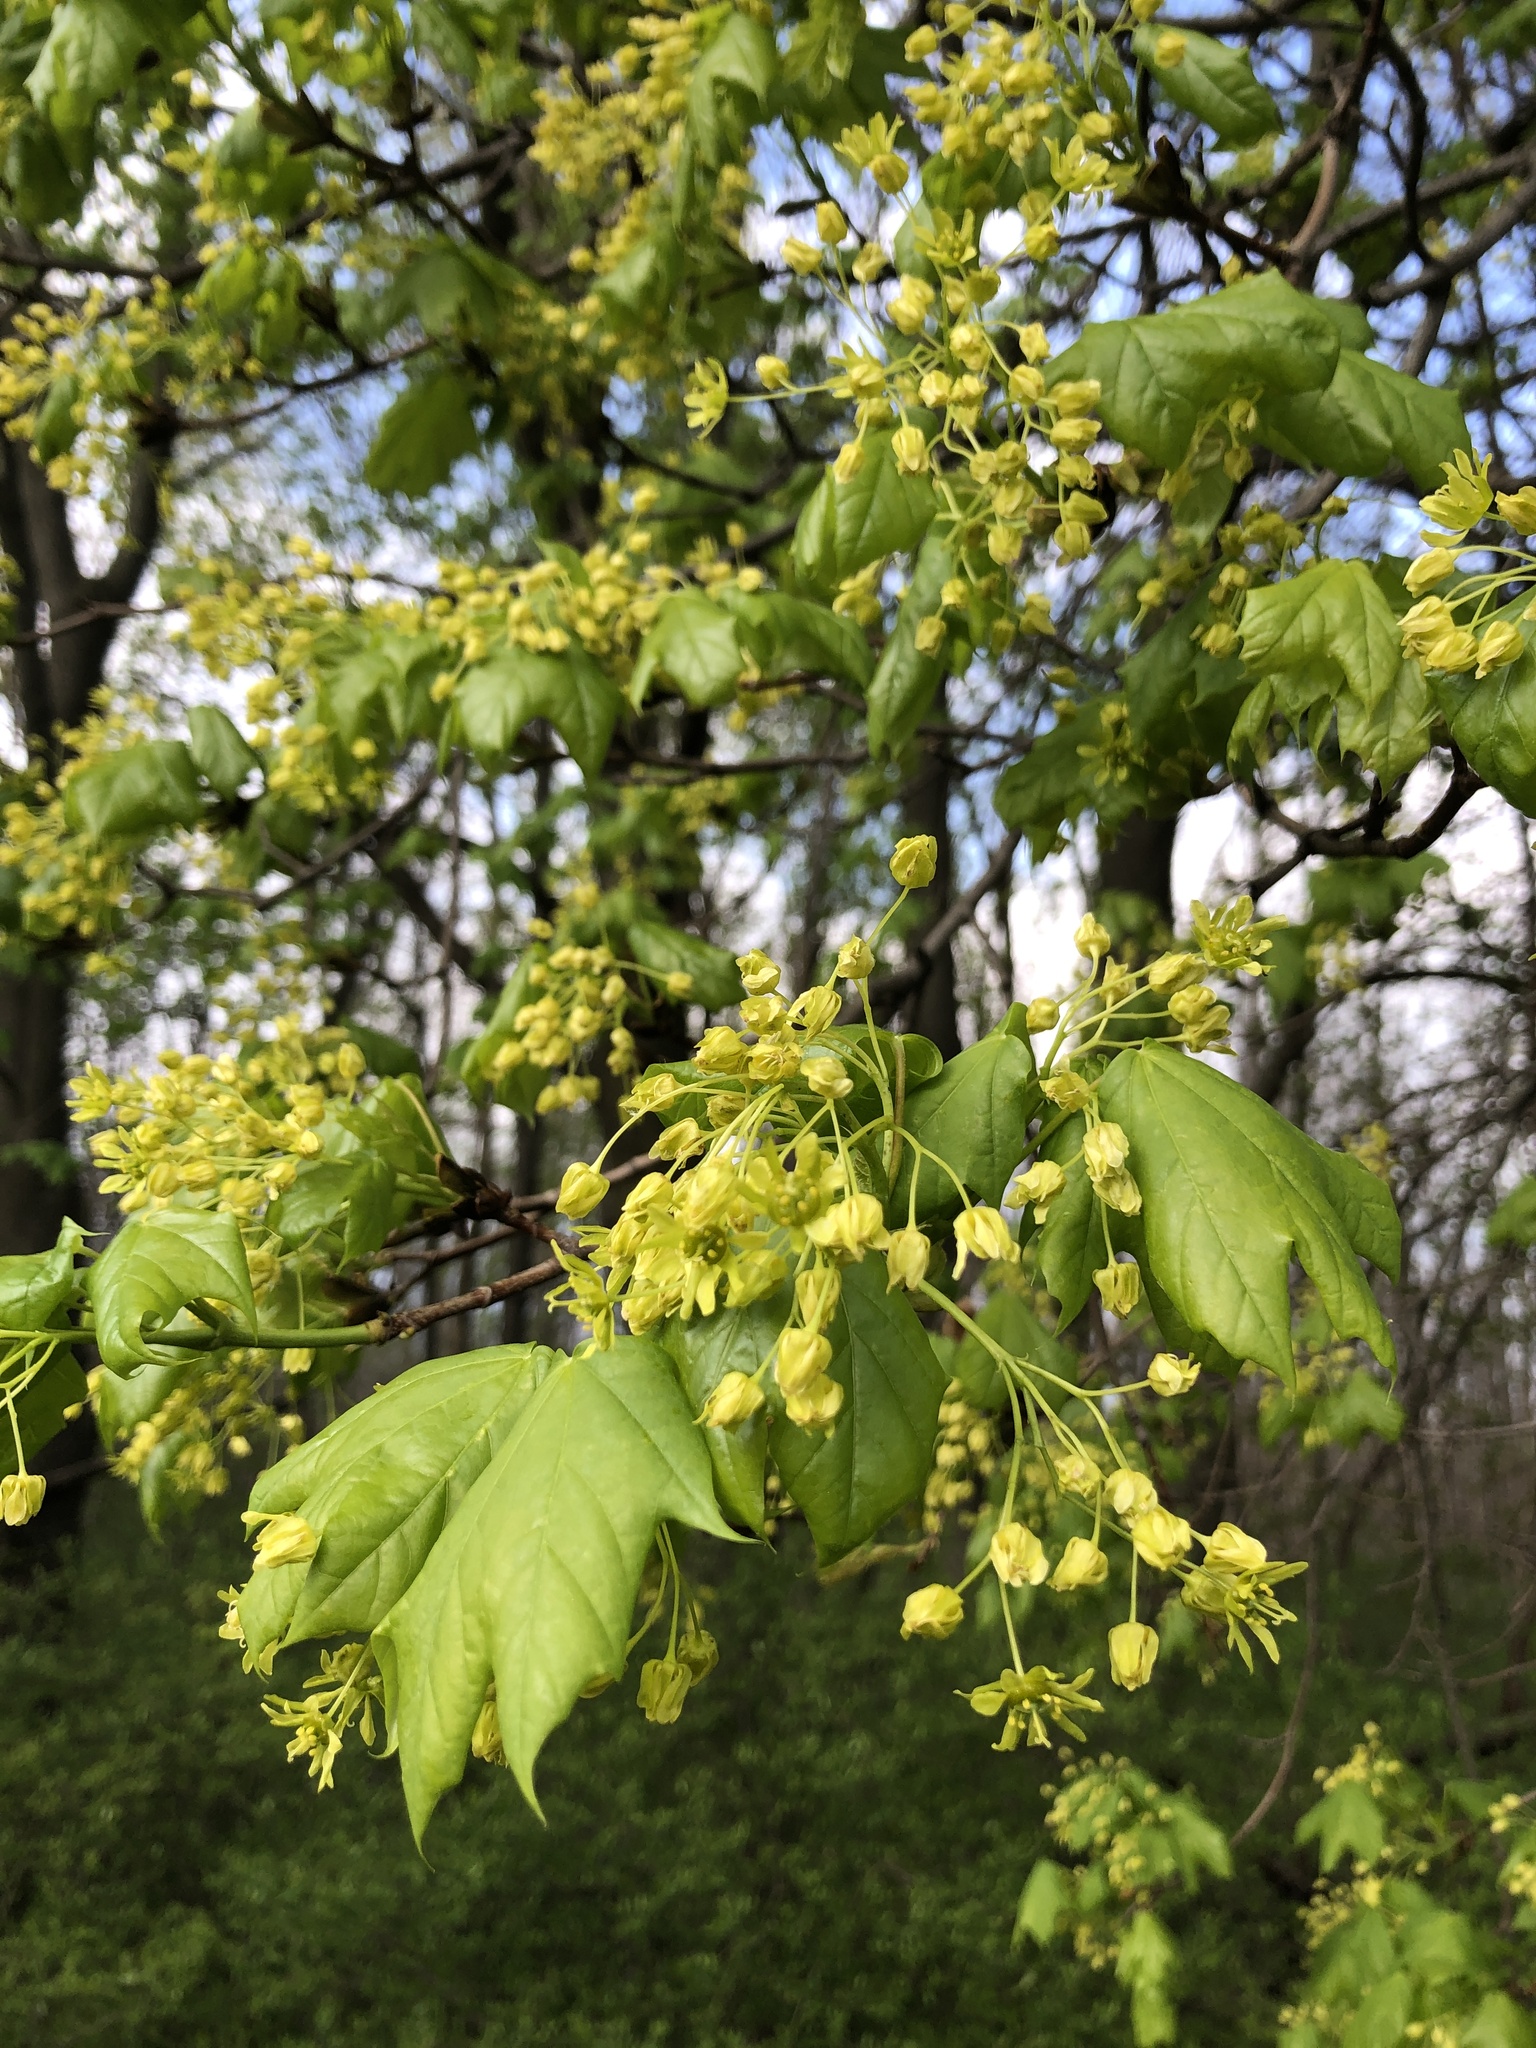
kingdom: Plantae
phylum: Tracheophyta
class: Magnoliopsida
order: Sapindales
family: Sapindaceae
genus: Acer
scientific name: Acer saccharum
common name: Sugar maple
